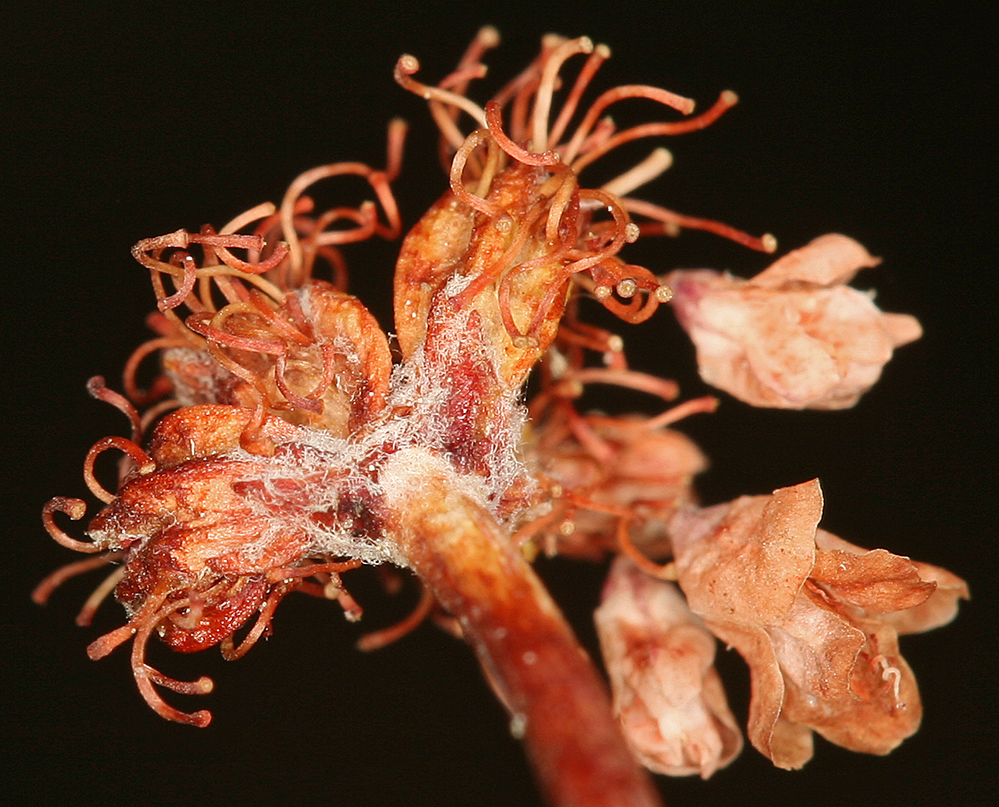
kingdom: Plantae
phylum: Tracheophyta
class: Magnoliopsida
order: Caryophyllales
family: Polygonaceae
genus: Eriogonum
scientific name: Eriogonum kennedyi
